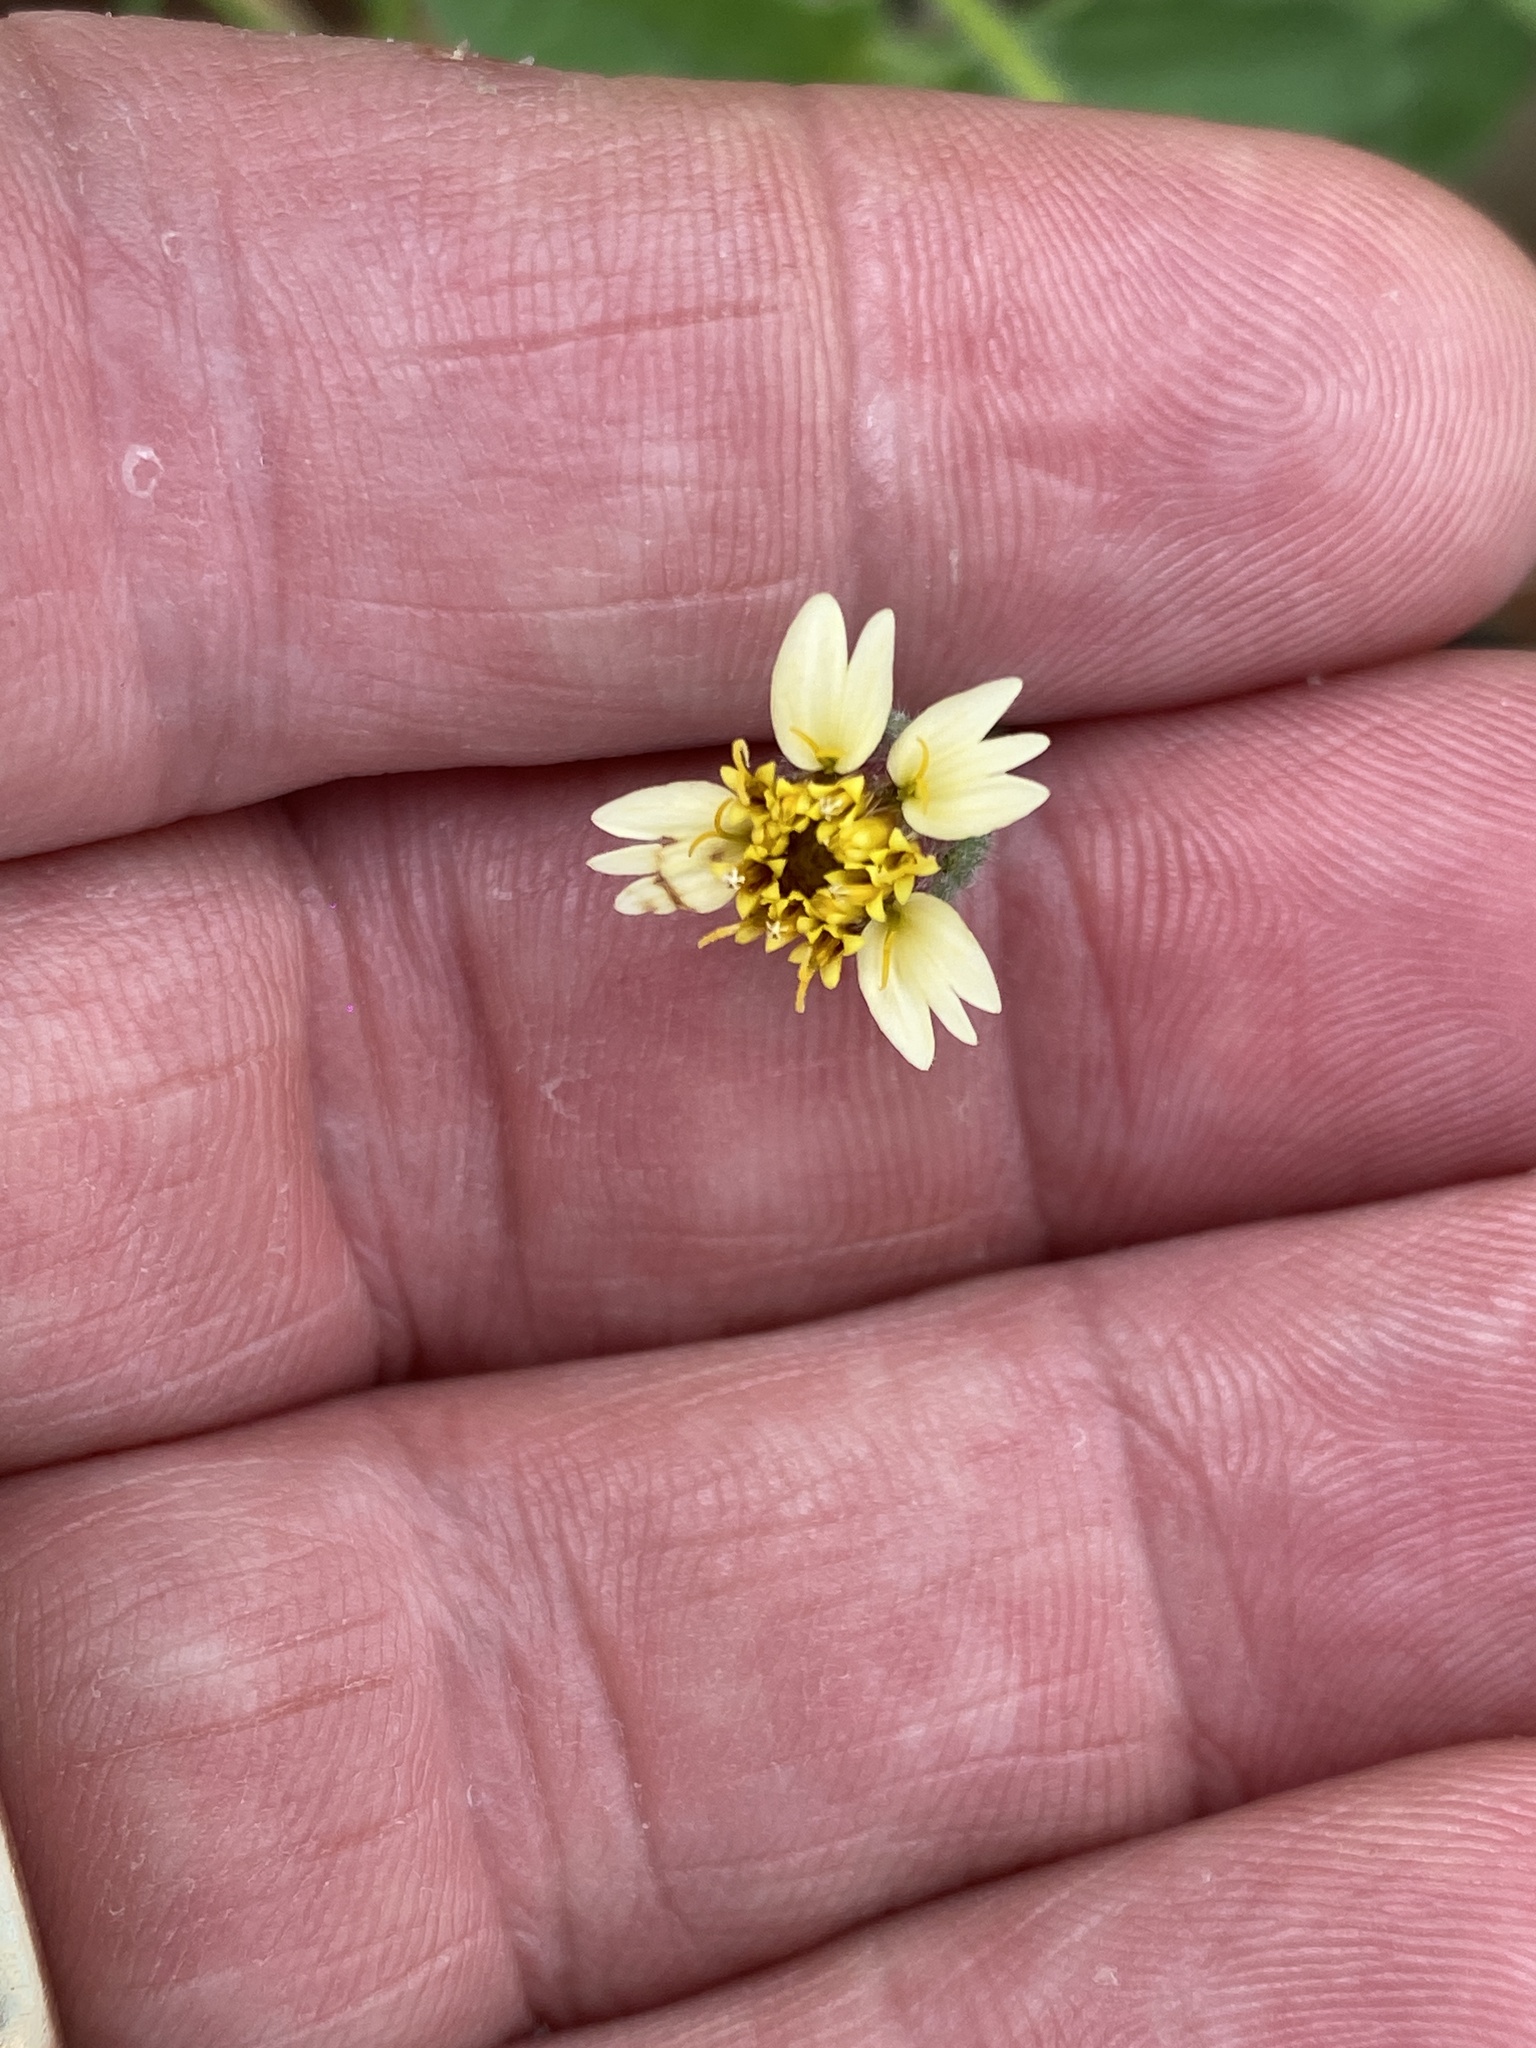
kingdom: Plantae
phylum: Tracheophyta
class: Magnoliopsida
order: Asterales
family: Asteraceae
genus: Tridax
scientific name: Tridax procumbens
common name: Coatbuttons
